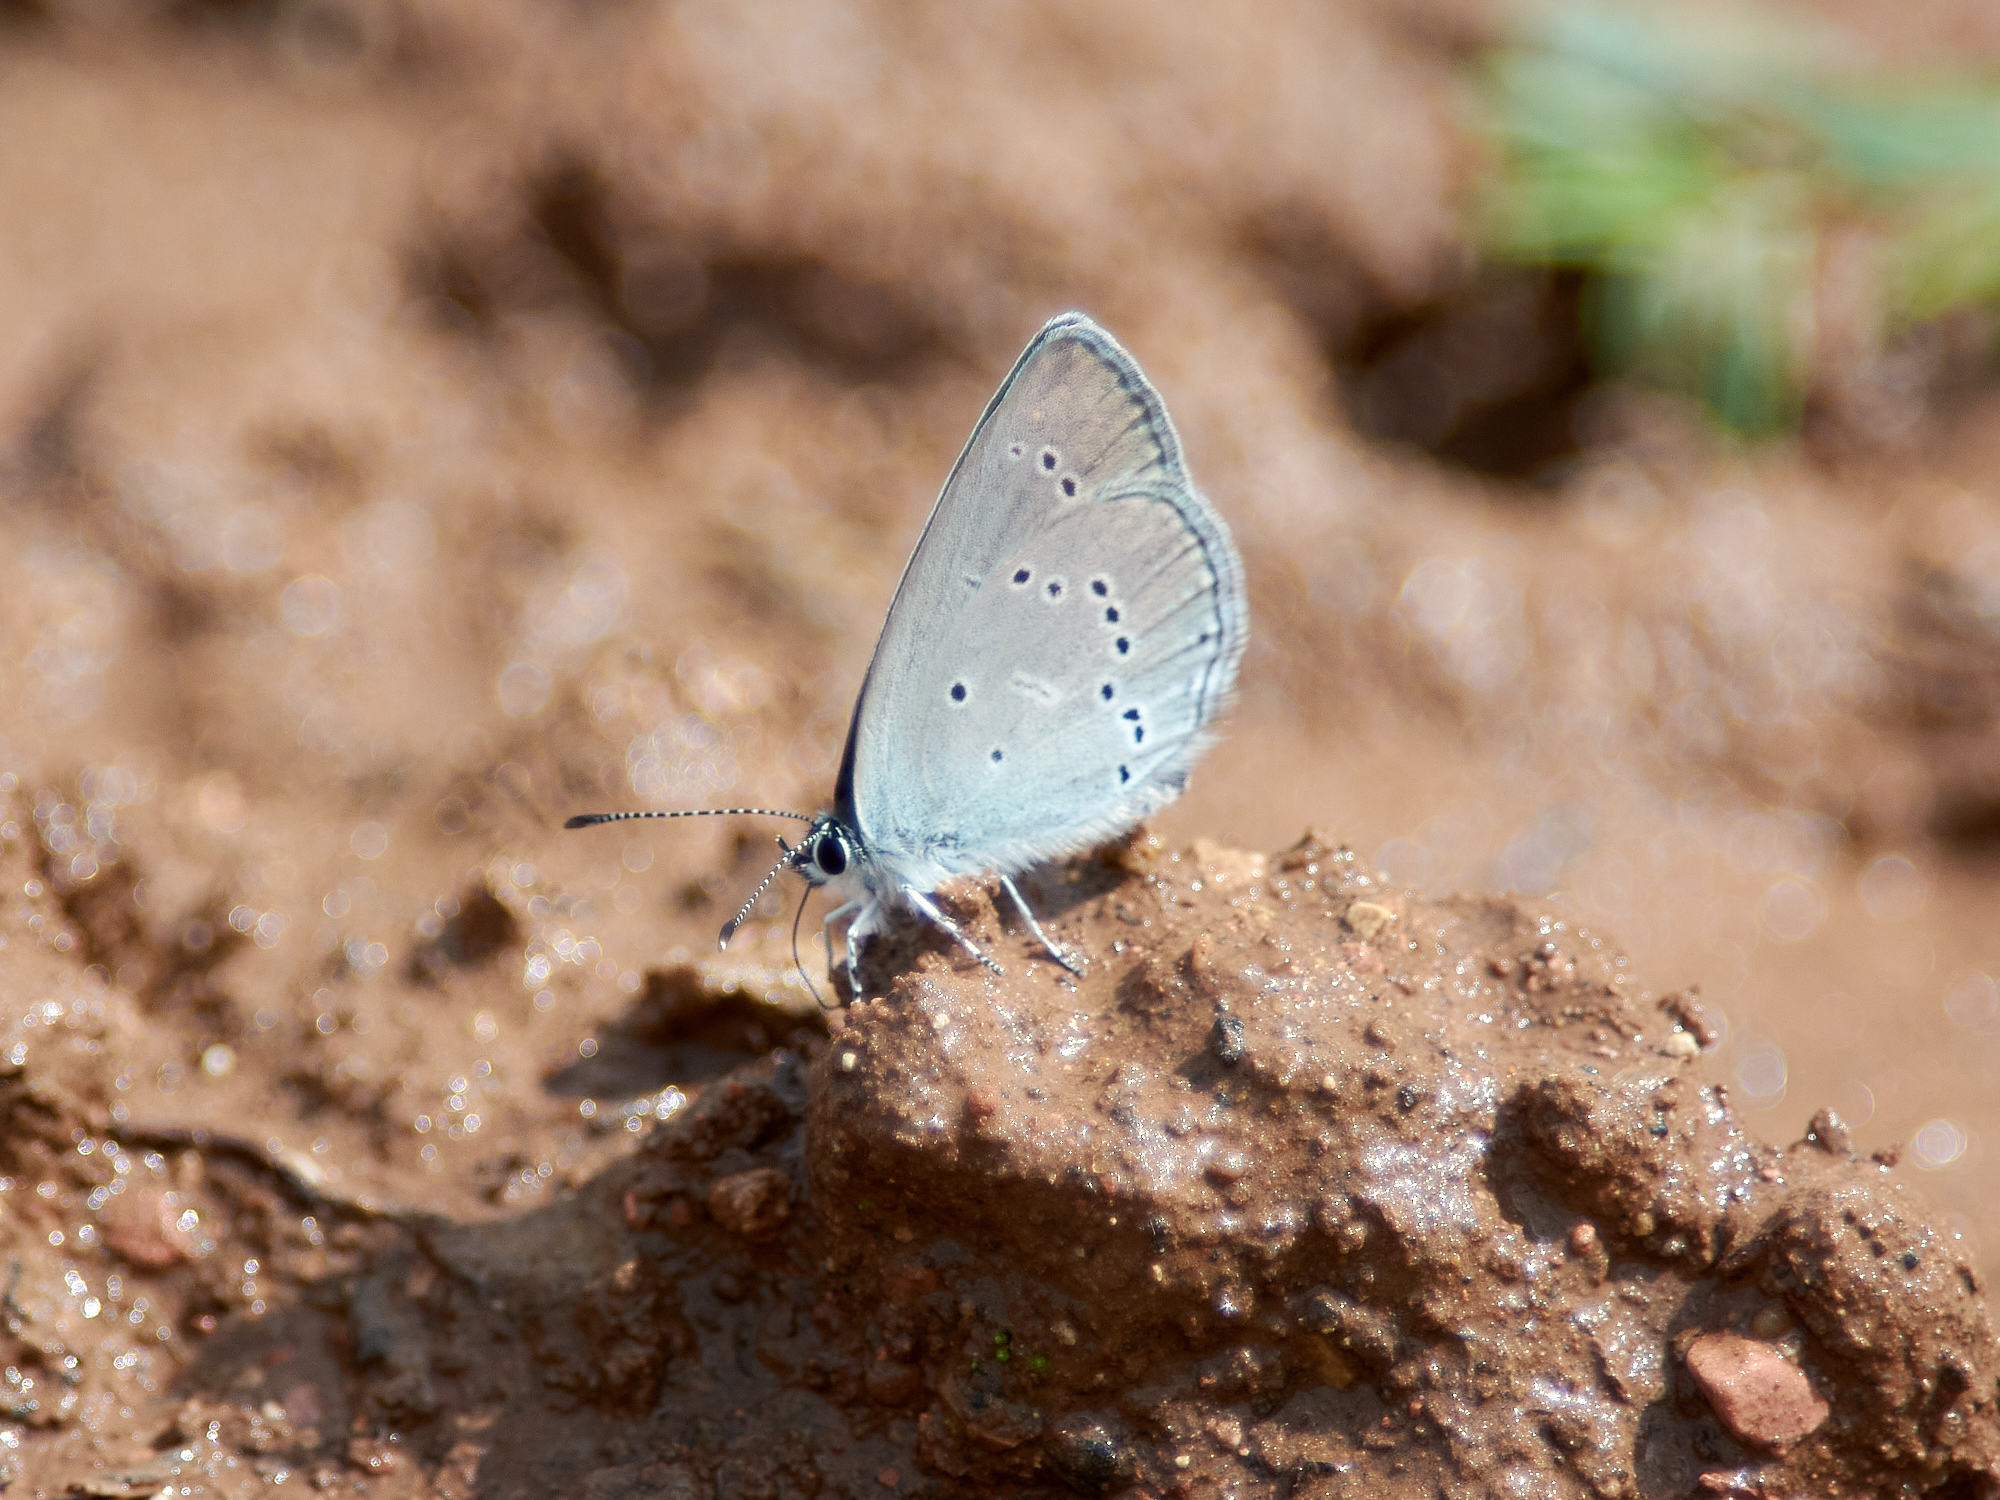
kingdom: Animalia
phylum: Arthropoda
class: Insecta
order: Lepidoptera
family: Lycaenidae
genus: Cupido
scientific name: Cupido minimus
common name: Small blue
